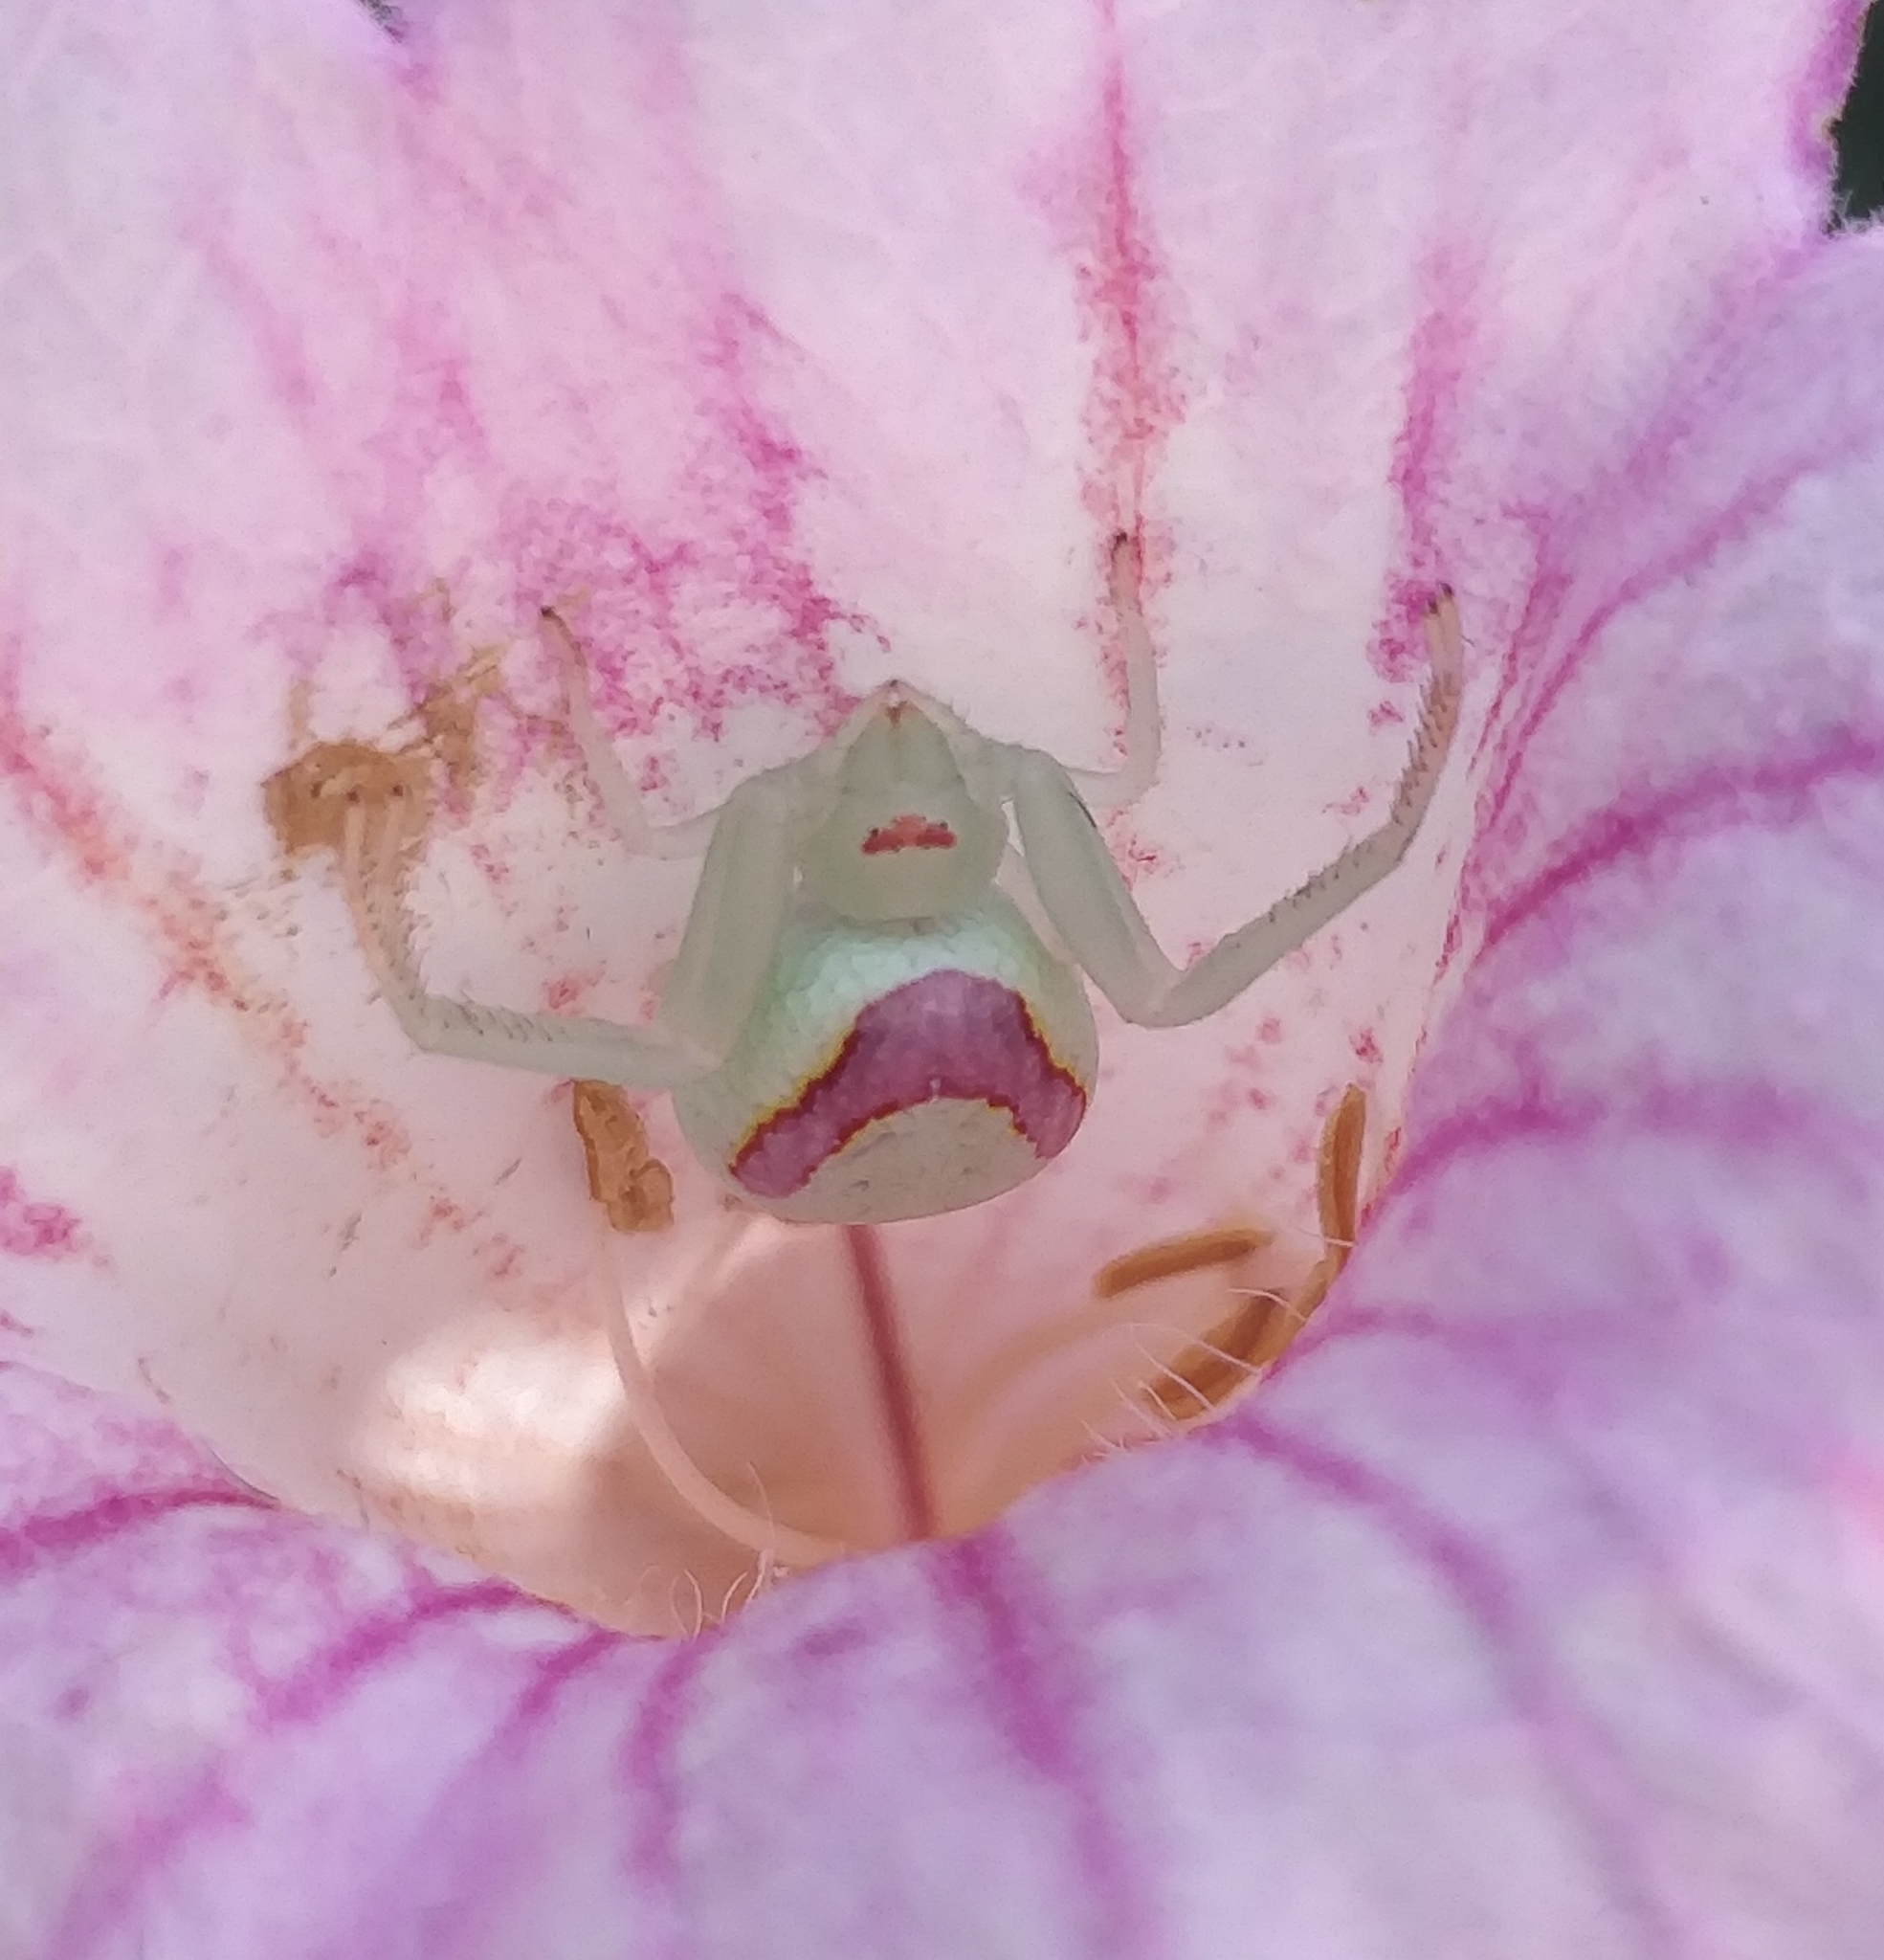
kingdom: Animalia
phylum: Arthropoda
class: Arachnida
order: Araneae
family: Thomisidae
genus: Misumena
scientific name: Misumena spinifera
